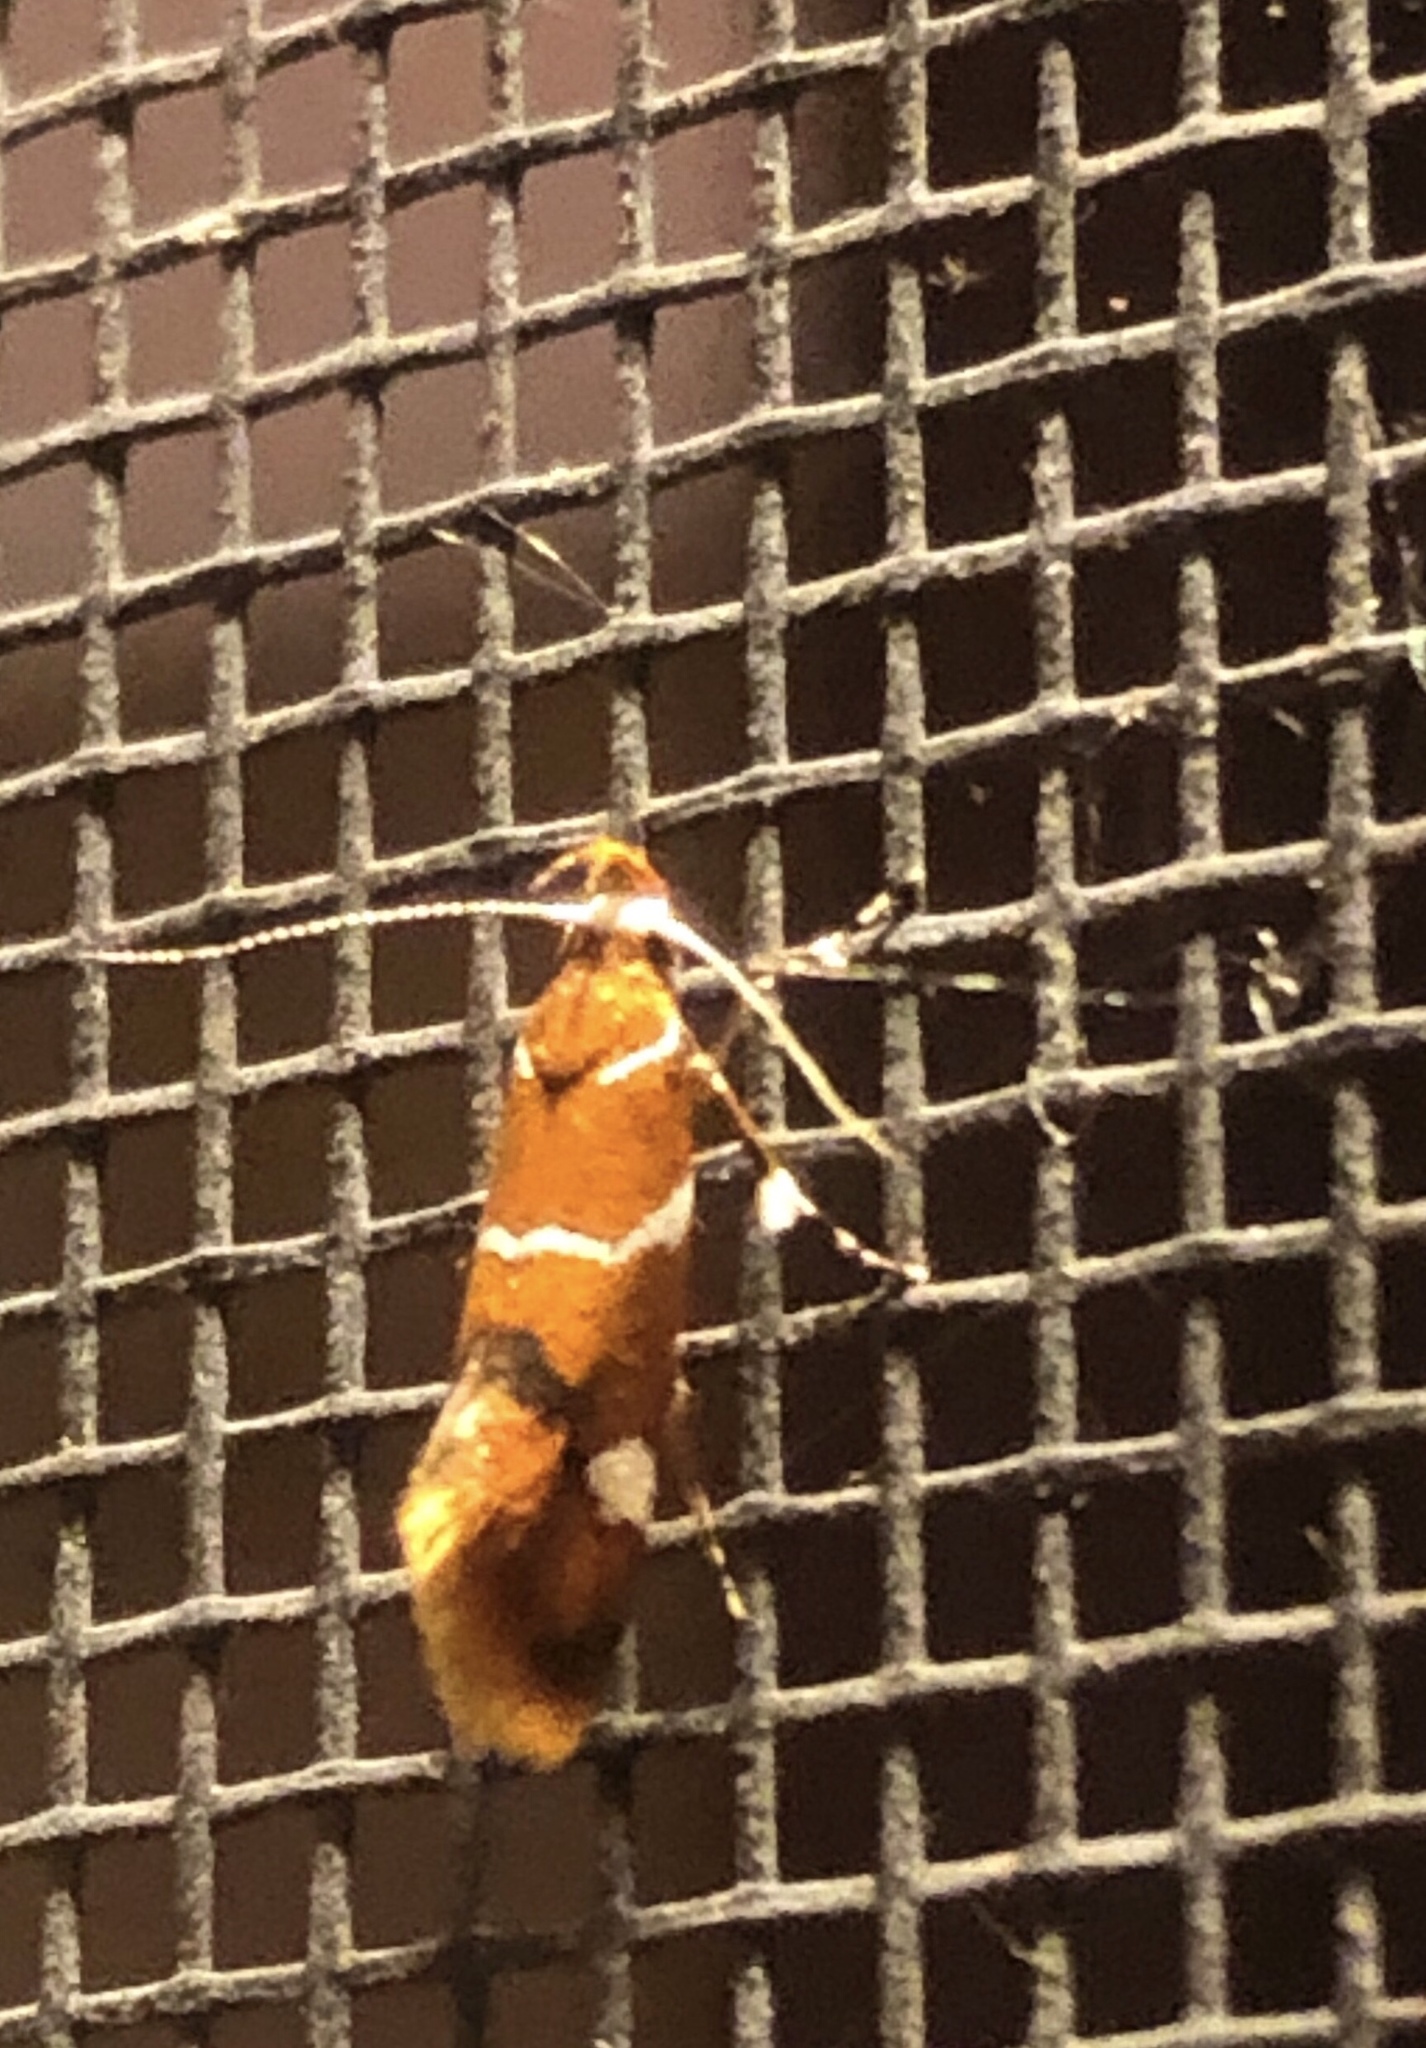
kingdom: Animalia
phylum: Arthropoda
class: Insecta
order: Lepidoptera
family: Oecophoridae
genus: Promalactis
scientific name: Promalactis suzukiella
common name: Moth
